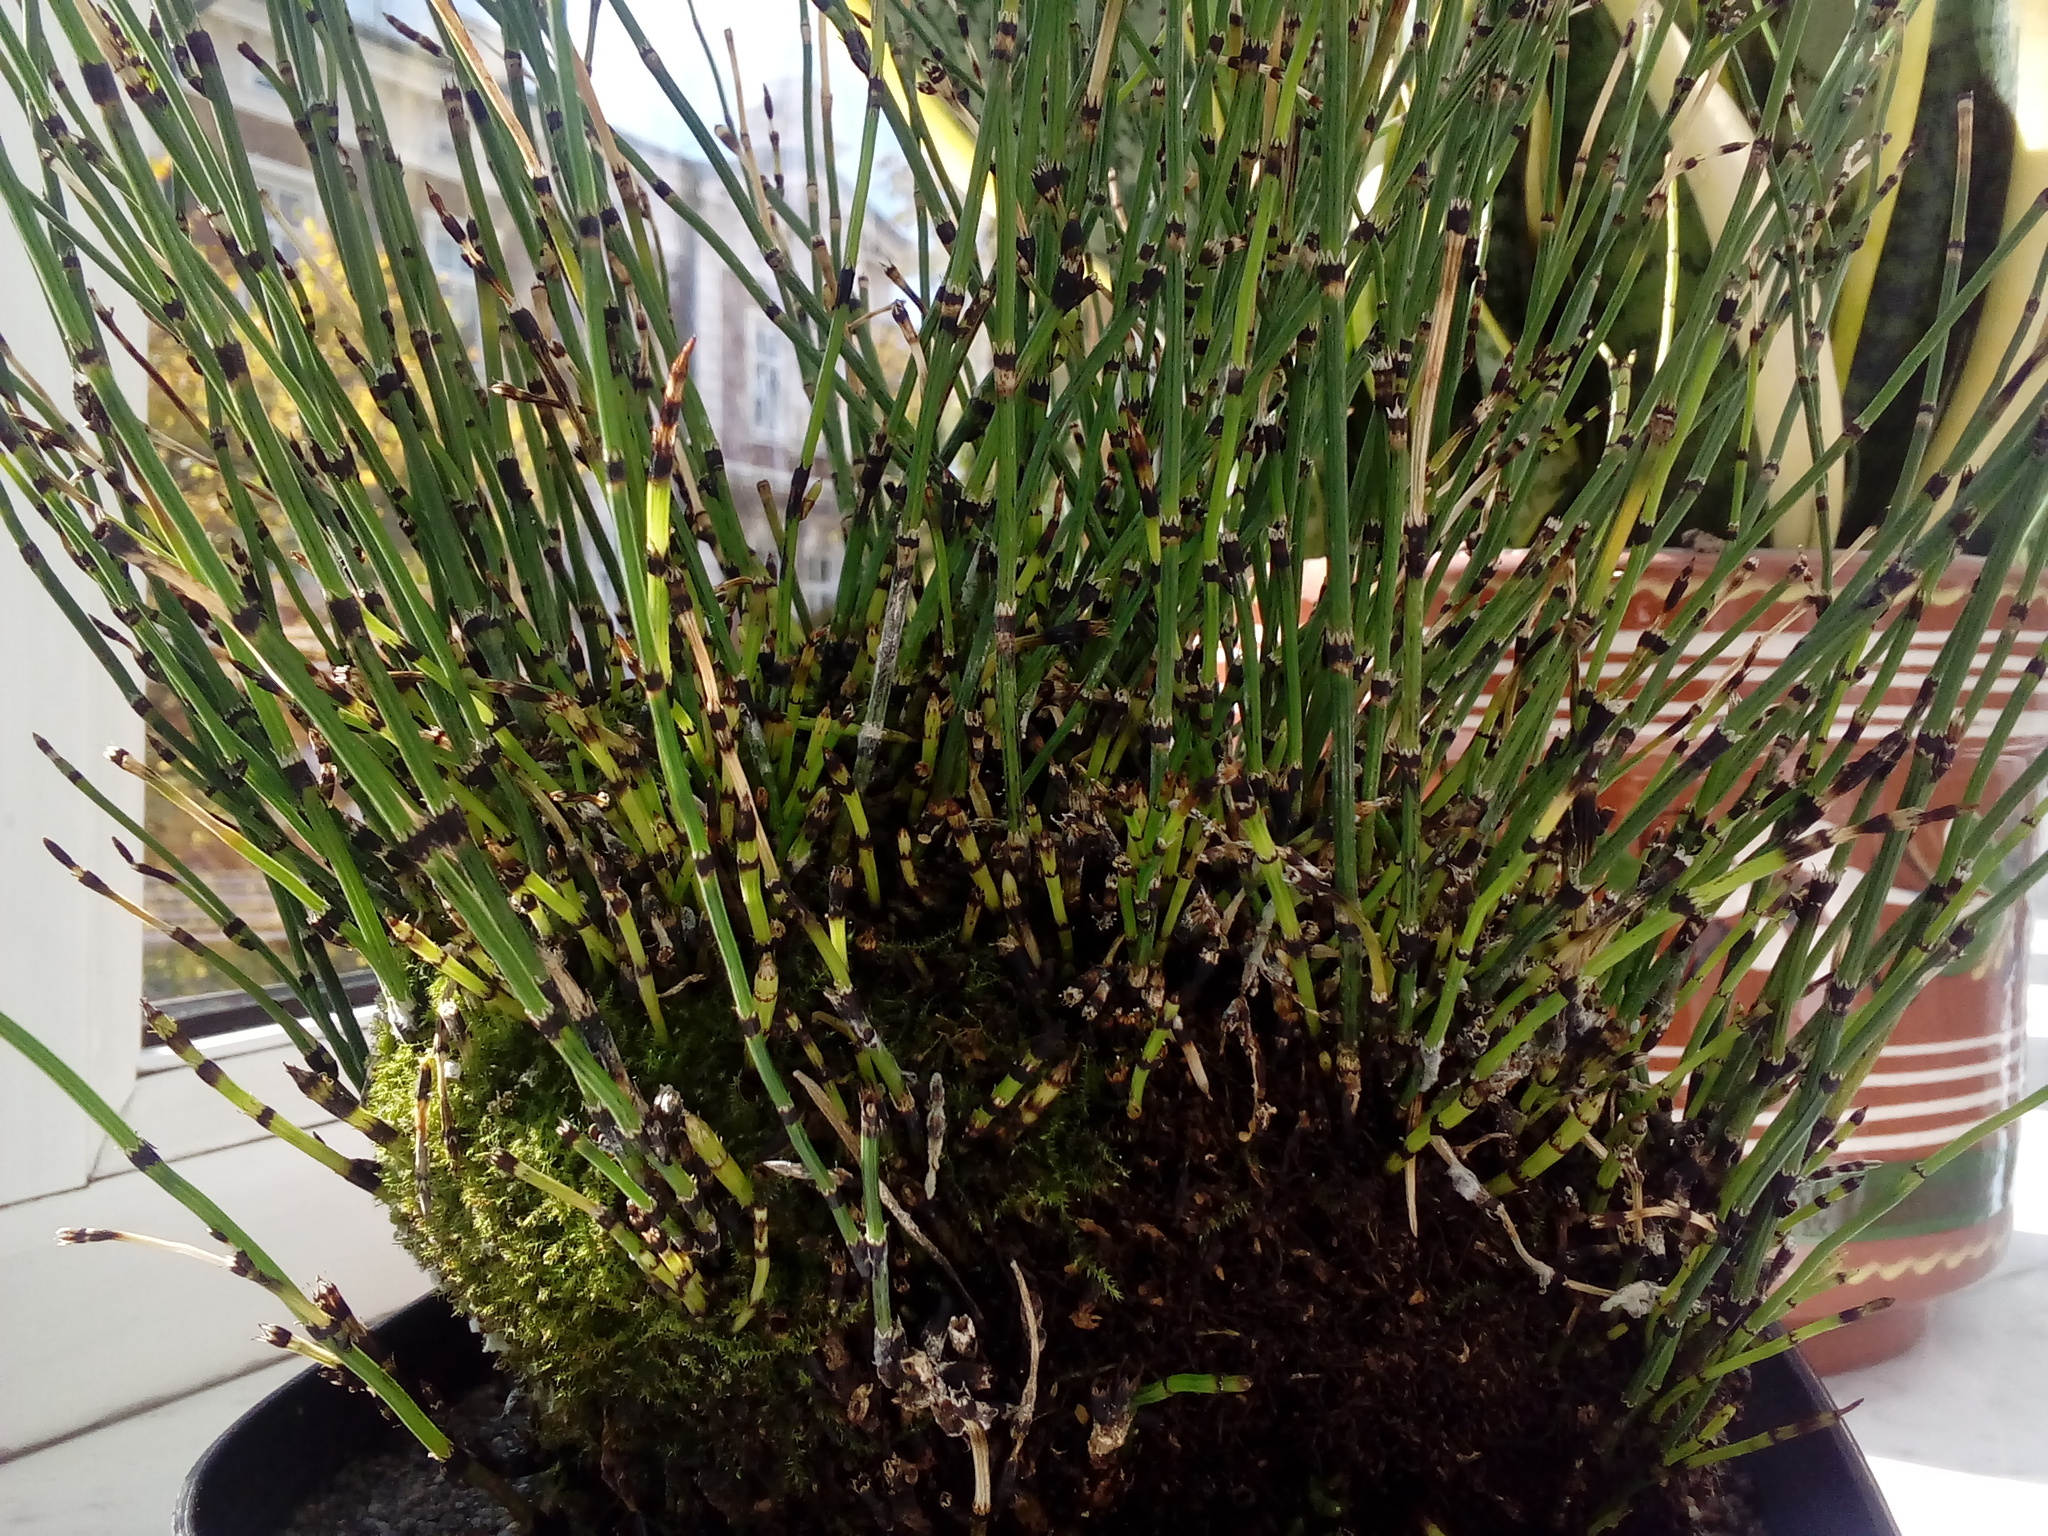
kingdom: Plantae
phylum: Tracheophyta
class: Polypodiopsida
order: Equisetales
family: Equisetaceae
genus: Equisetum
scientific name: Equisetum variegatum
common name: Variegated horsetail
